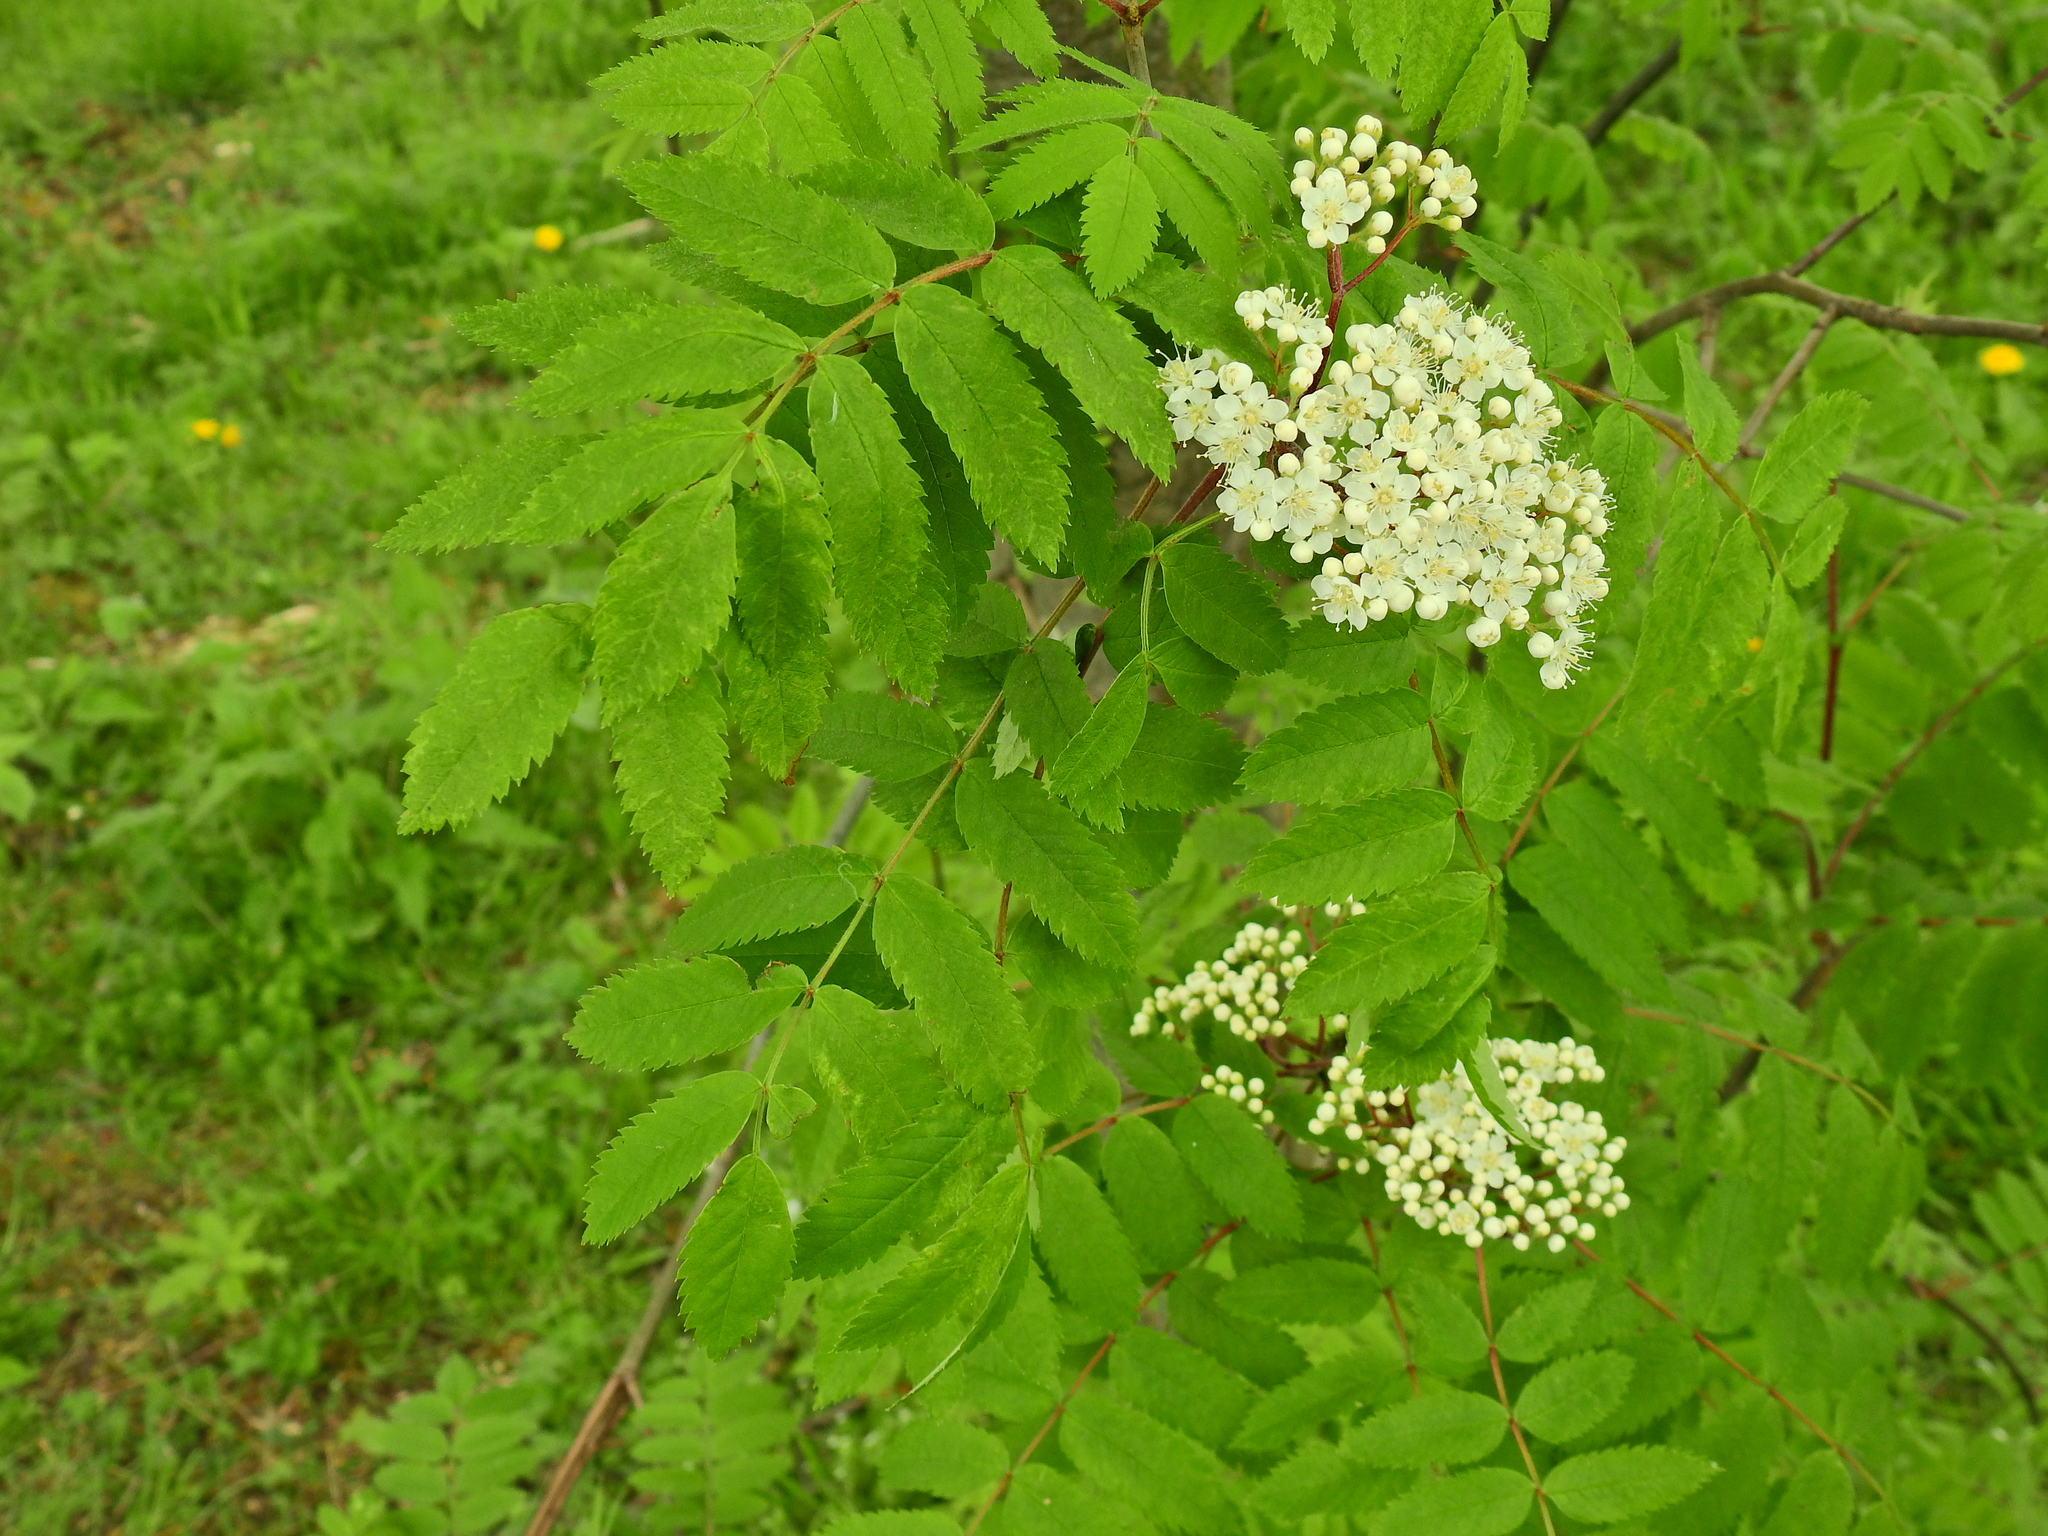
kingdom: Plantae
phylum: Tracheophyta
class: Magnoliopsida
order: Rosales
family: Rosaceae
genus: Sorbus
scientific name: Sorbus aucuparia
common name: Rowan
